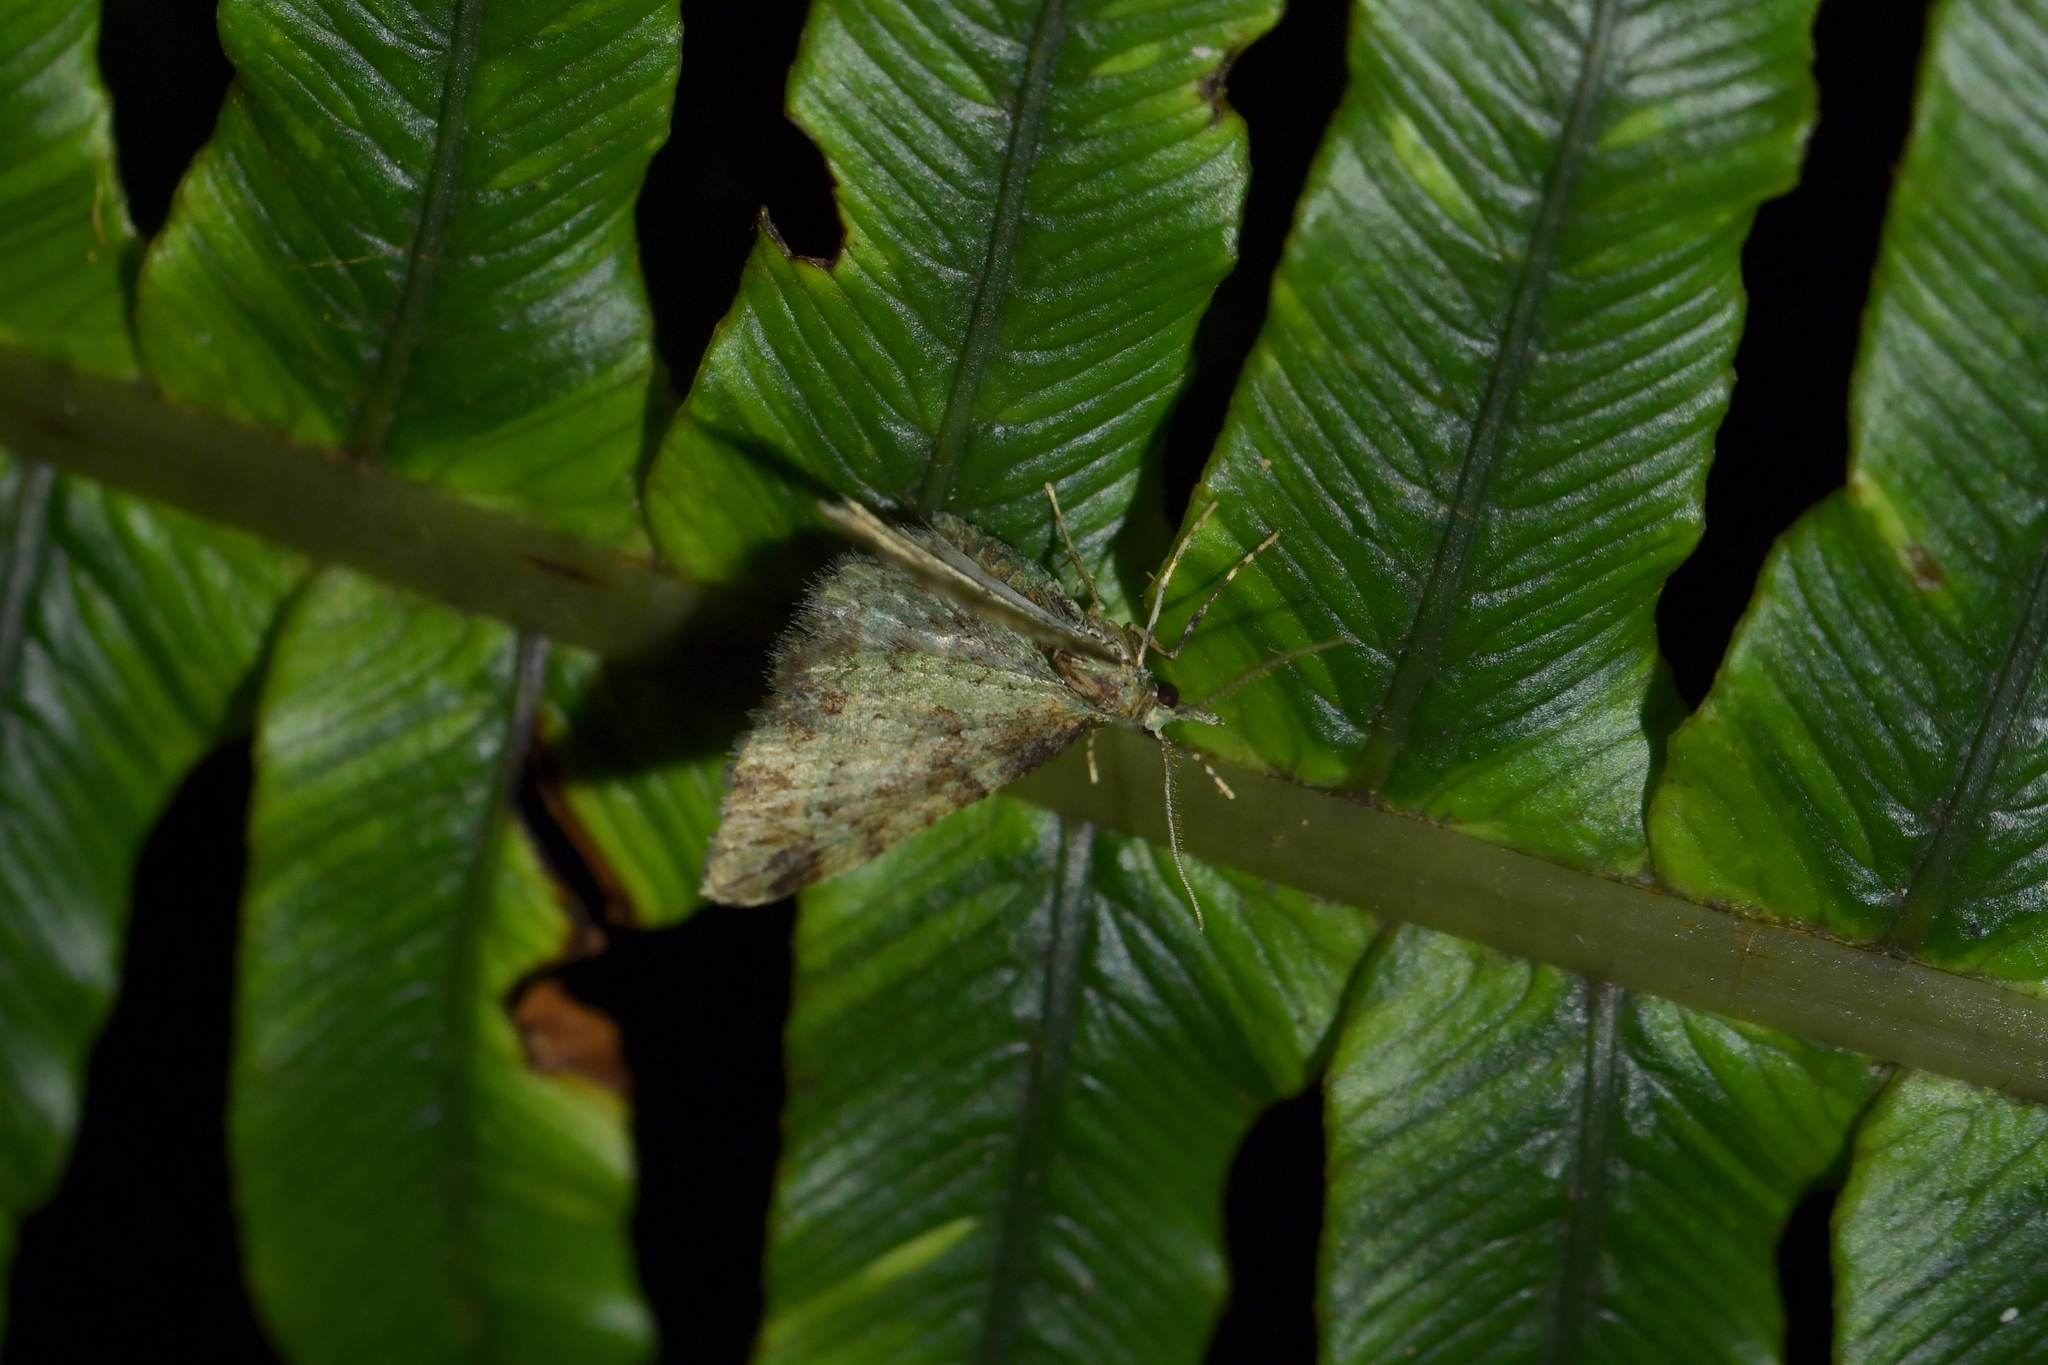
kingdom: Animalia
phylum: Arthropoda
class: Insecta
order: Lepidoptera
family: Geometridae
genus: Pasiphila
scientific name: Pasiphila plinthina
